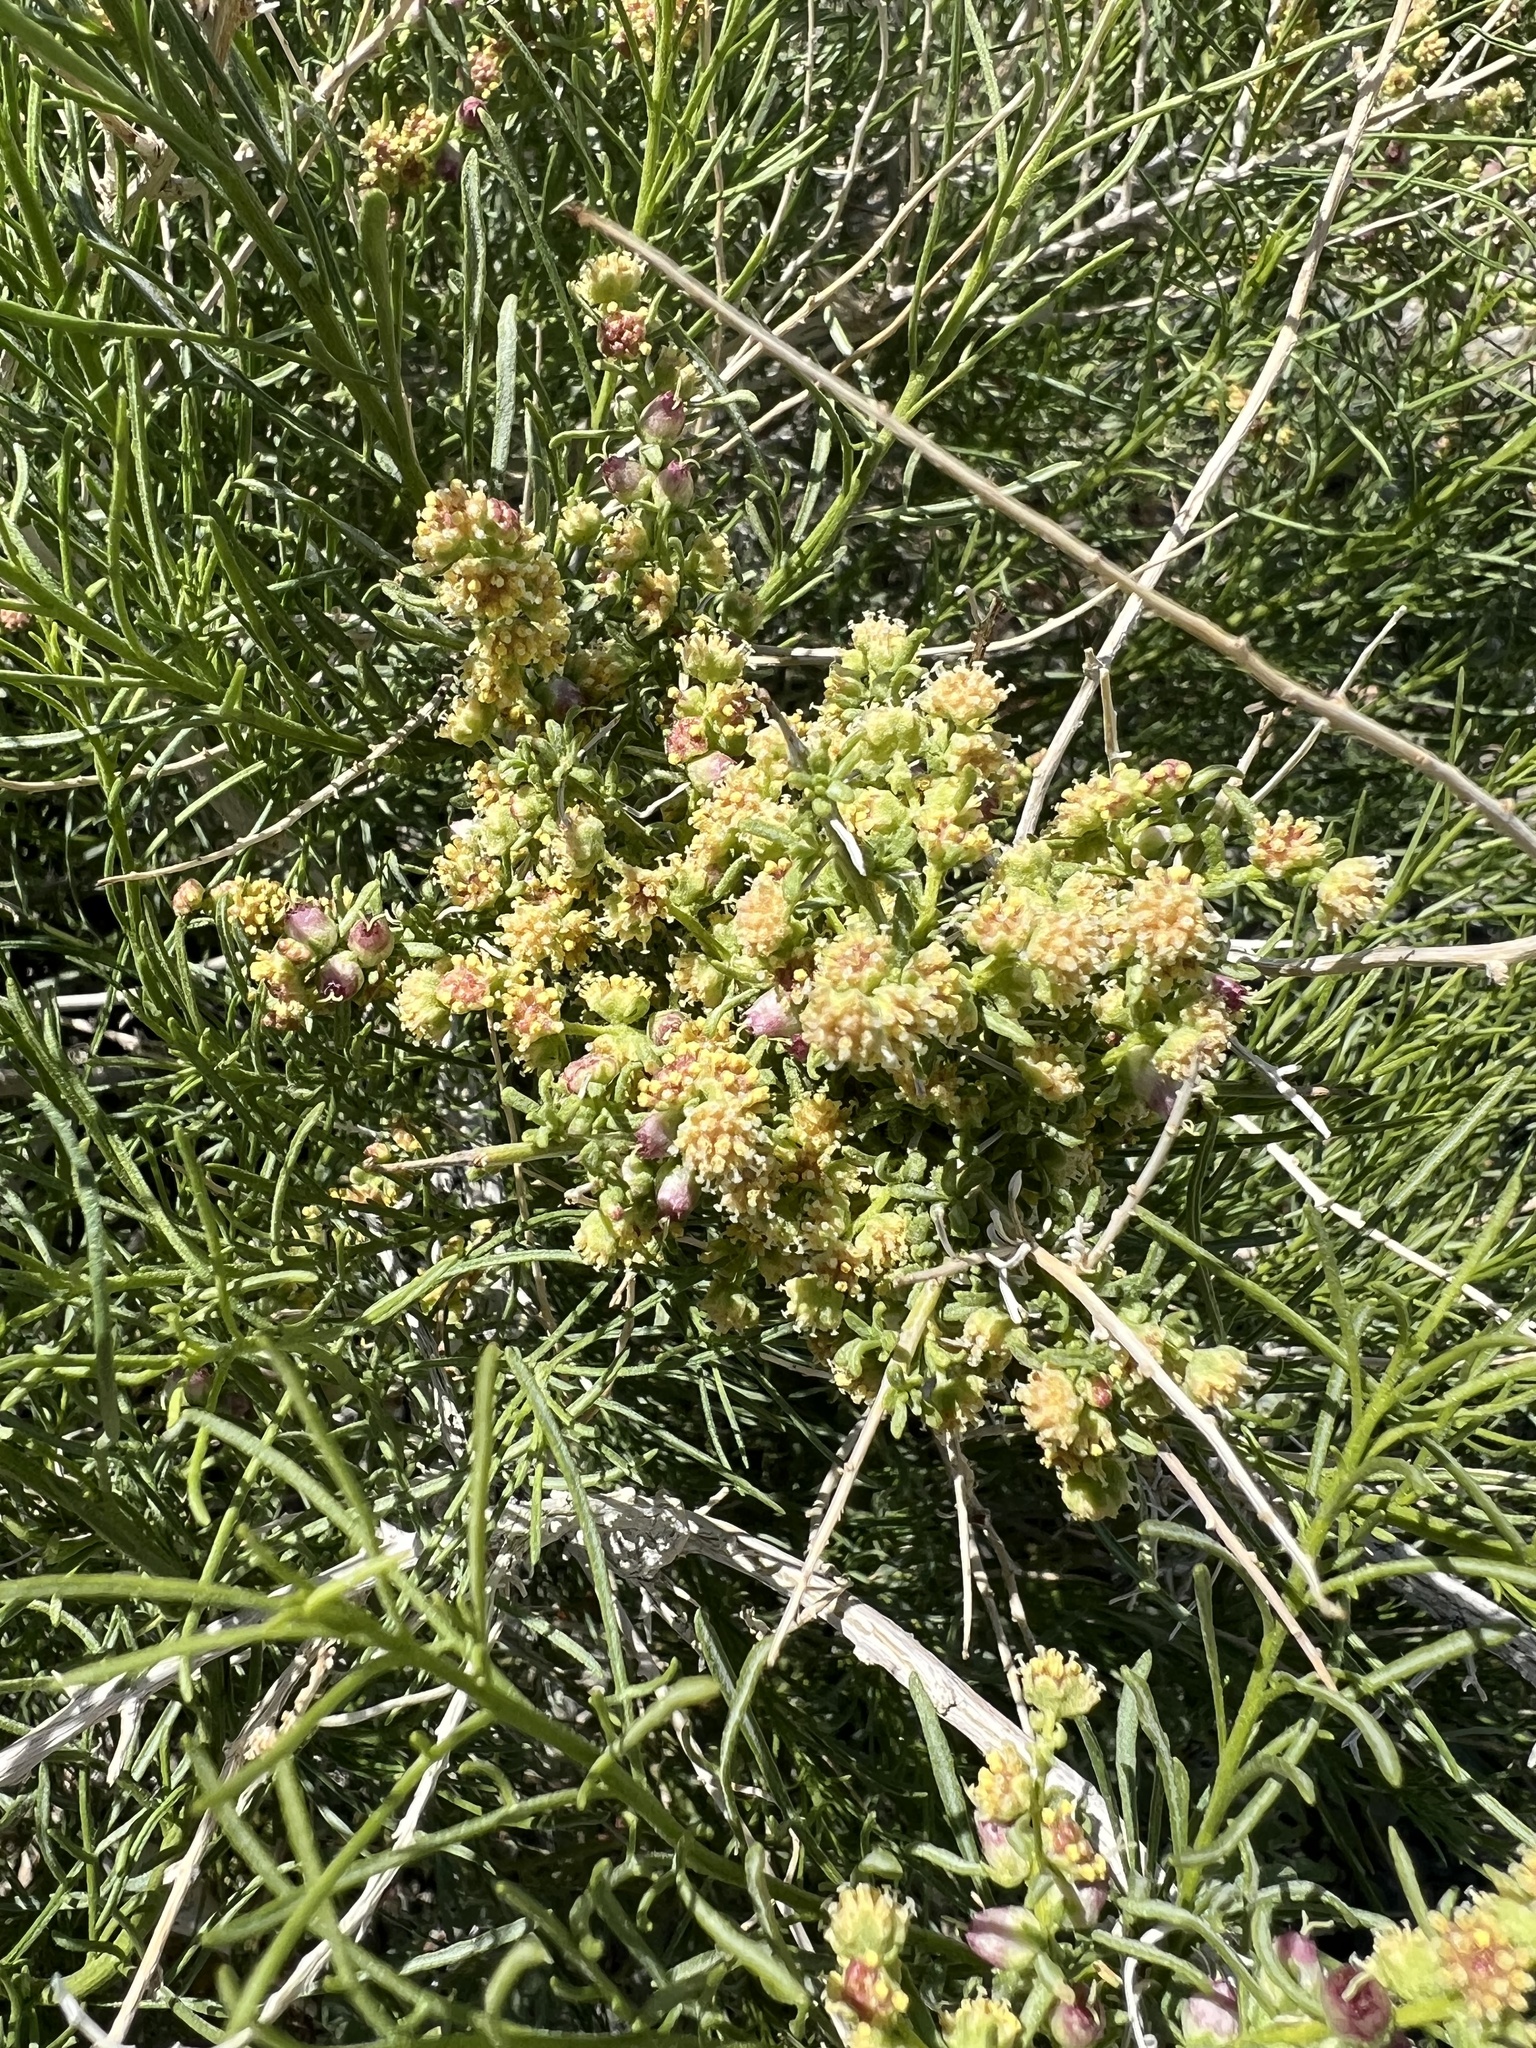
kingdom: Plantae
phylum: Tracheophyta
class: Magnoliopsida
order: Asterales
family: Asteraceae
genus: Ambrosia
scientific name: Ambrosia salsola
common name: Burrobrush
